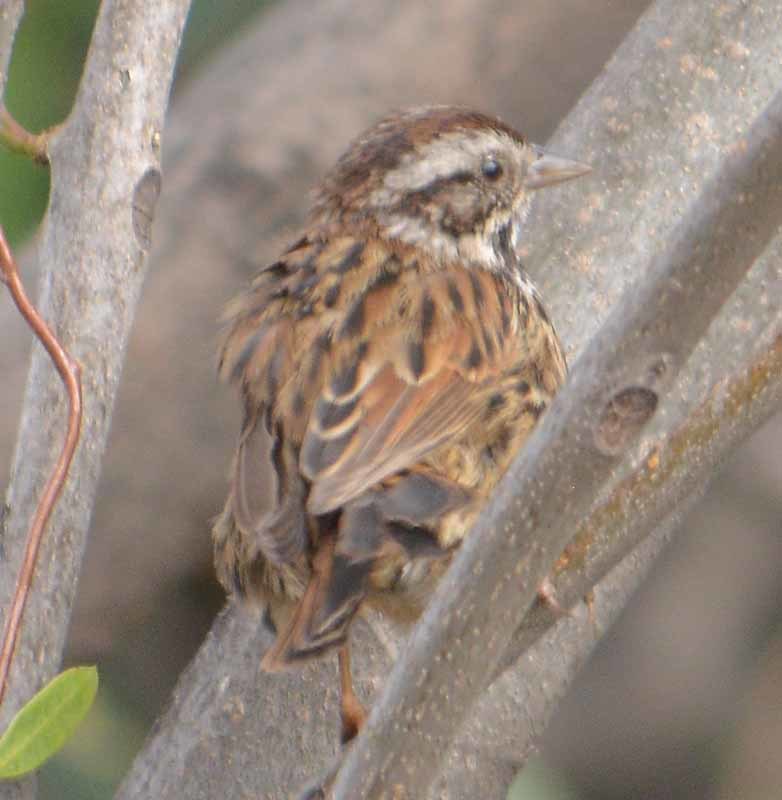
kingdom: Animalia
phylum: Chordata
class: Aves
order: Passeriformes
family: Passerellidae
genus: Melospiza
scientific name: Melospiza melodia
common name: Song sparrow
